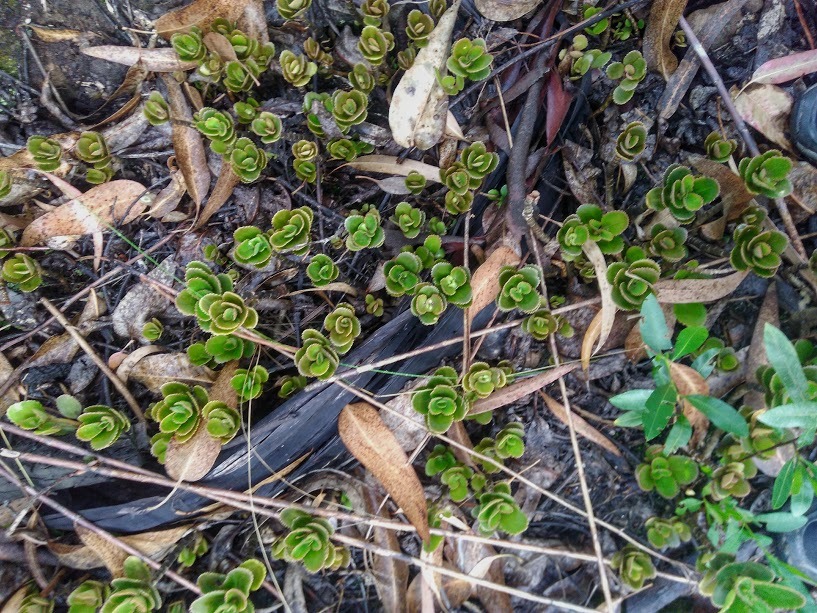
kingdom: Plantae
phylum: Tracheophyta
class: Magnoliopsida
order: Saxifragales
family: Crassulaceae
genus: Kalanchoe
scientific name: Kalanchoe densiflora
